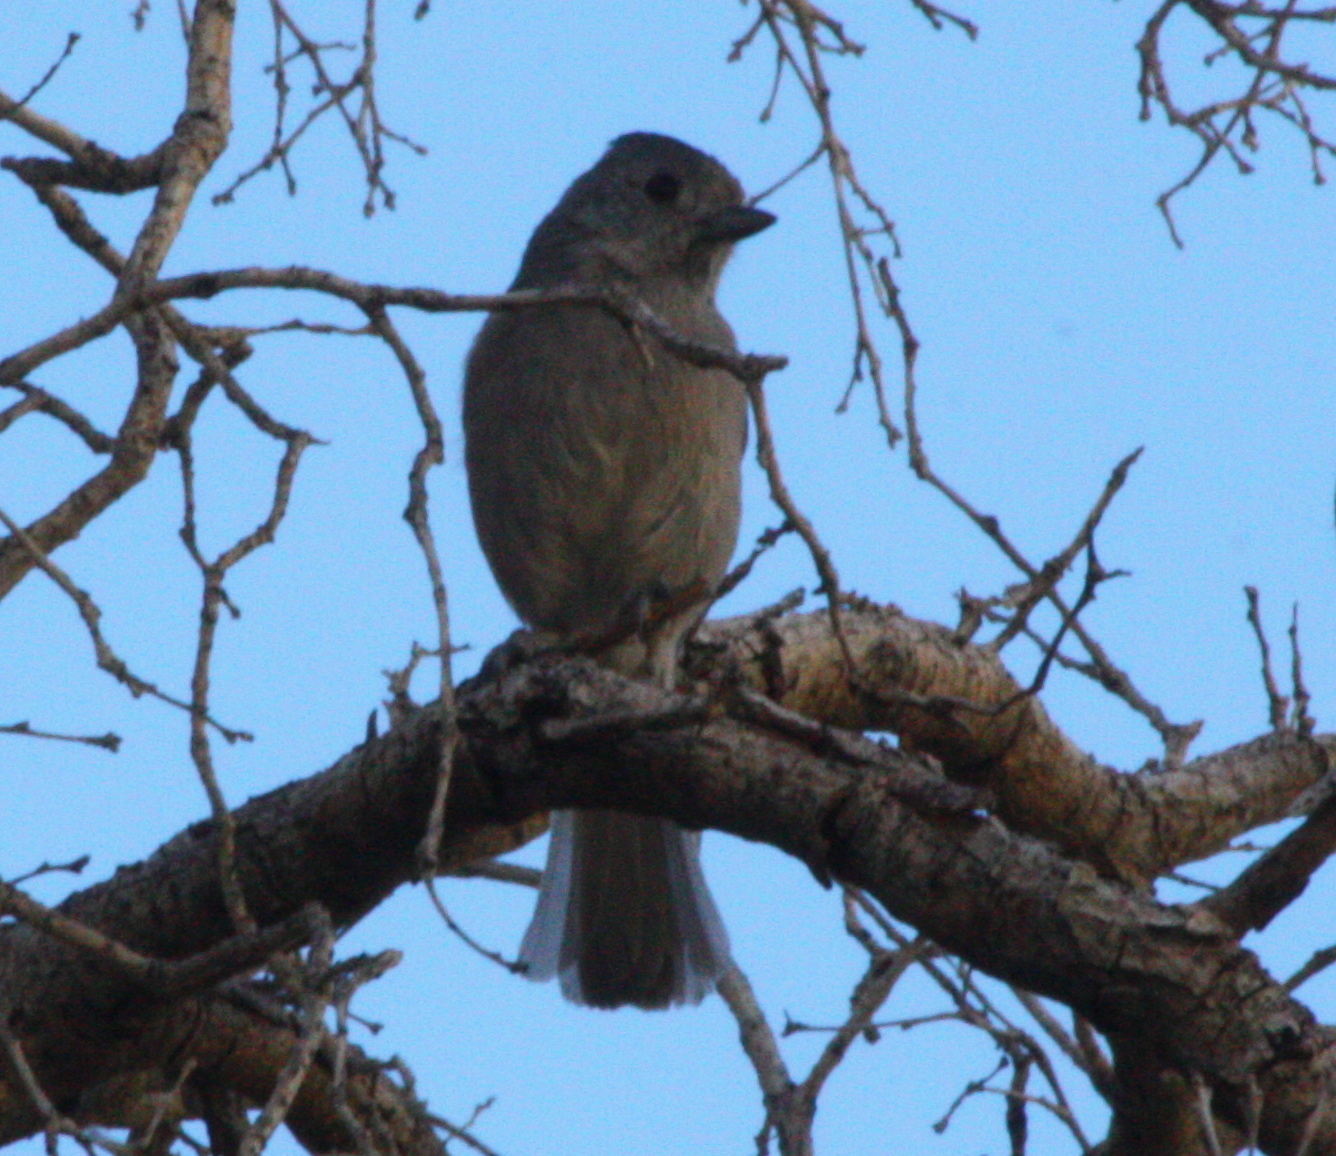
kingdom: Animalia
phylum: Chordata
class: Aves
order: Passeriformes
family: Paridae
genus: Baeolophus
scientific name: Baeolophus inornatus
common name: Oak titmouse
